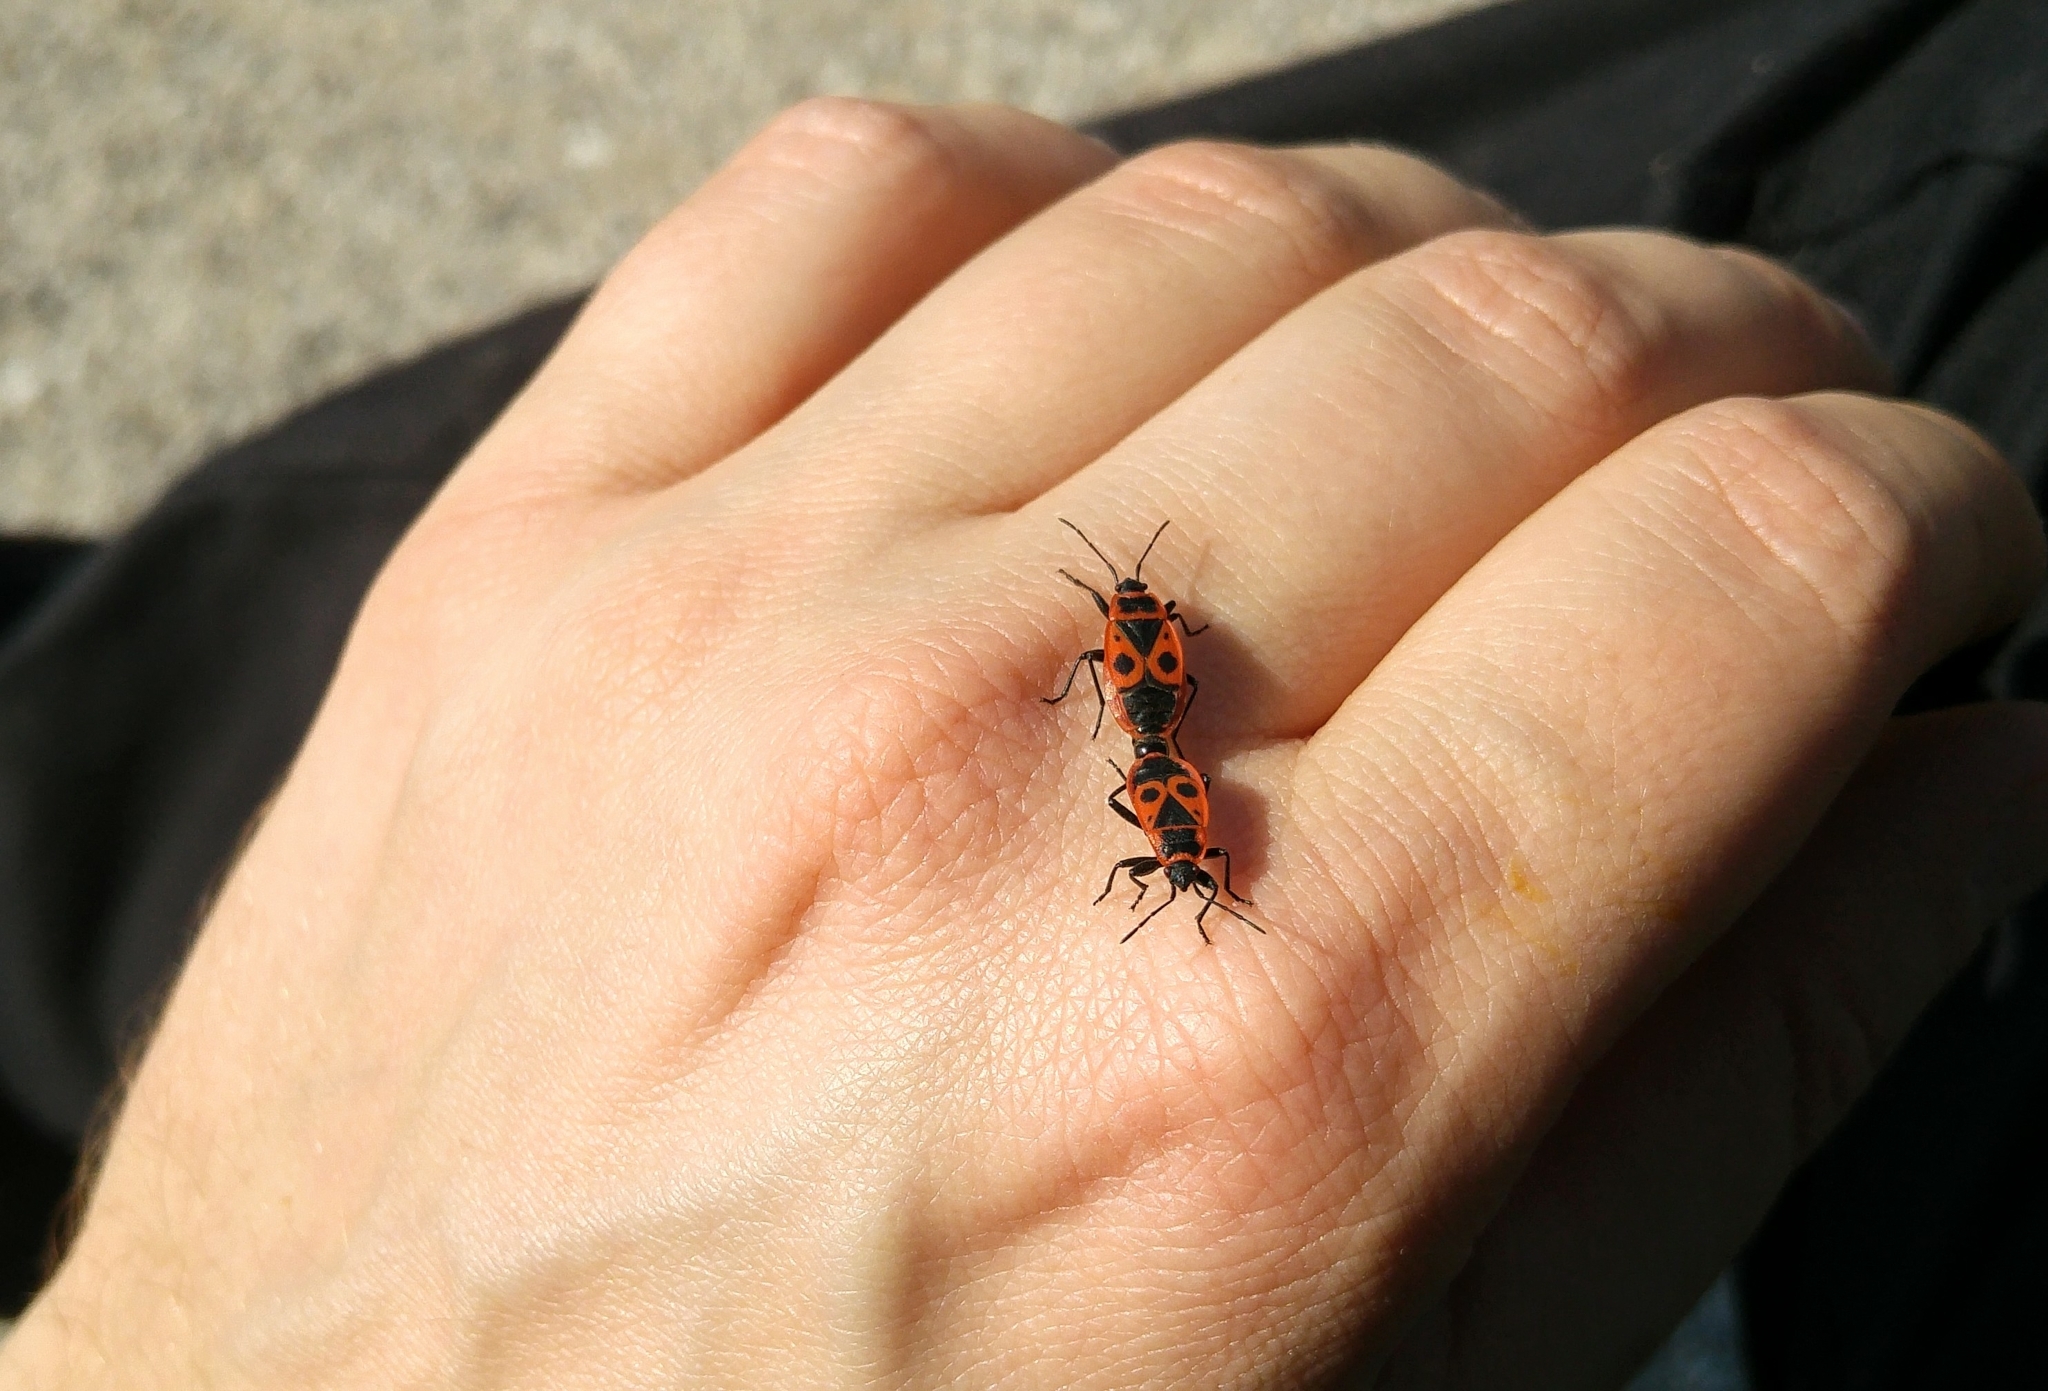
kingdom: Animalia
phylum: Arthropoda
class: Insecta
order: Hemiptera
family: Pyrrhocoridae
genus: Pyrrhocoris
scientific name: Pyrrhocoris apterus
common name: Firebug
